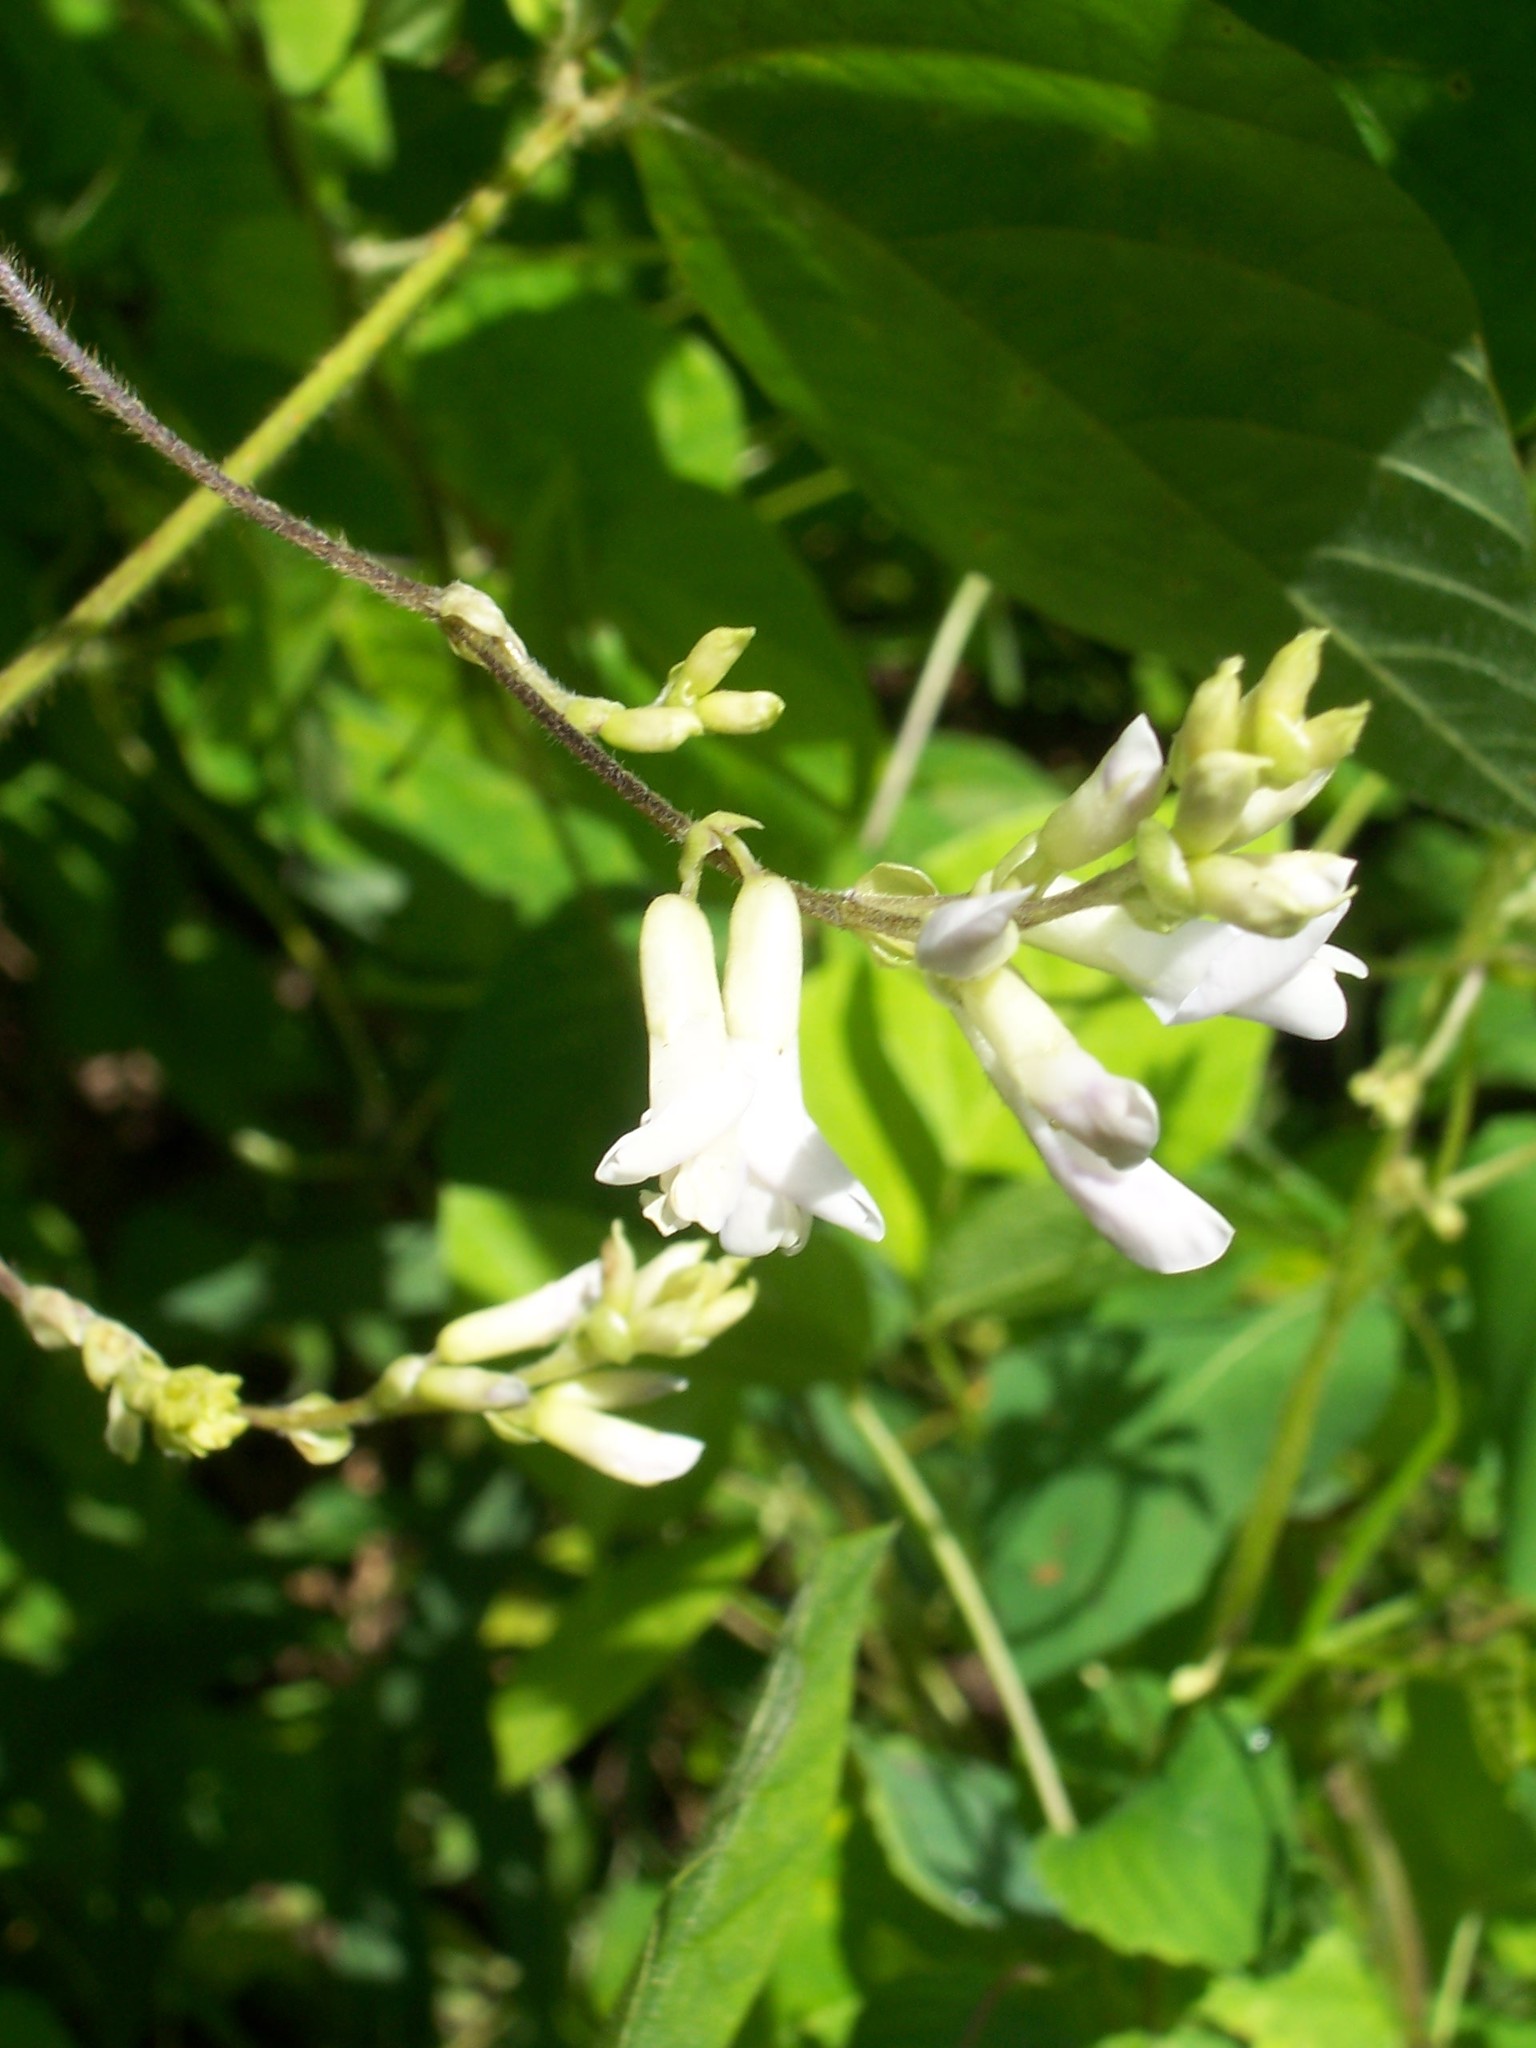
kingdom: Plantae
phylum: Tracheophyta
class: Magnoliopsida
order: Fabales
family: Fabaceae
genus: Amphicarpaea
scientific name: Amphicarpaea bracteata
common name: American hog peanut
